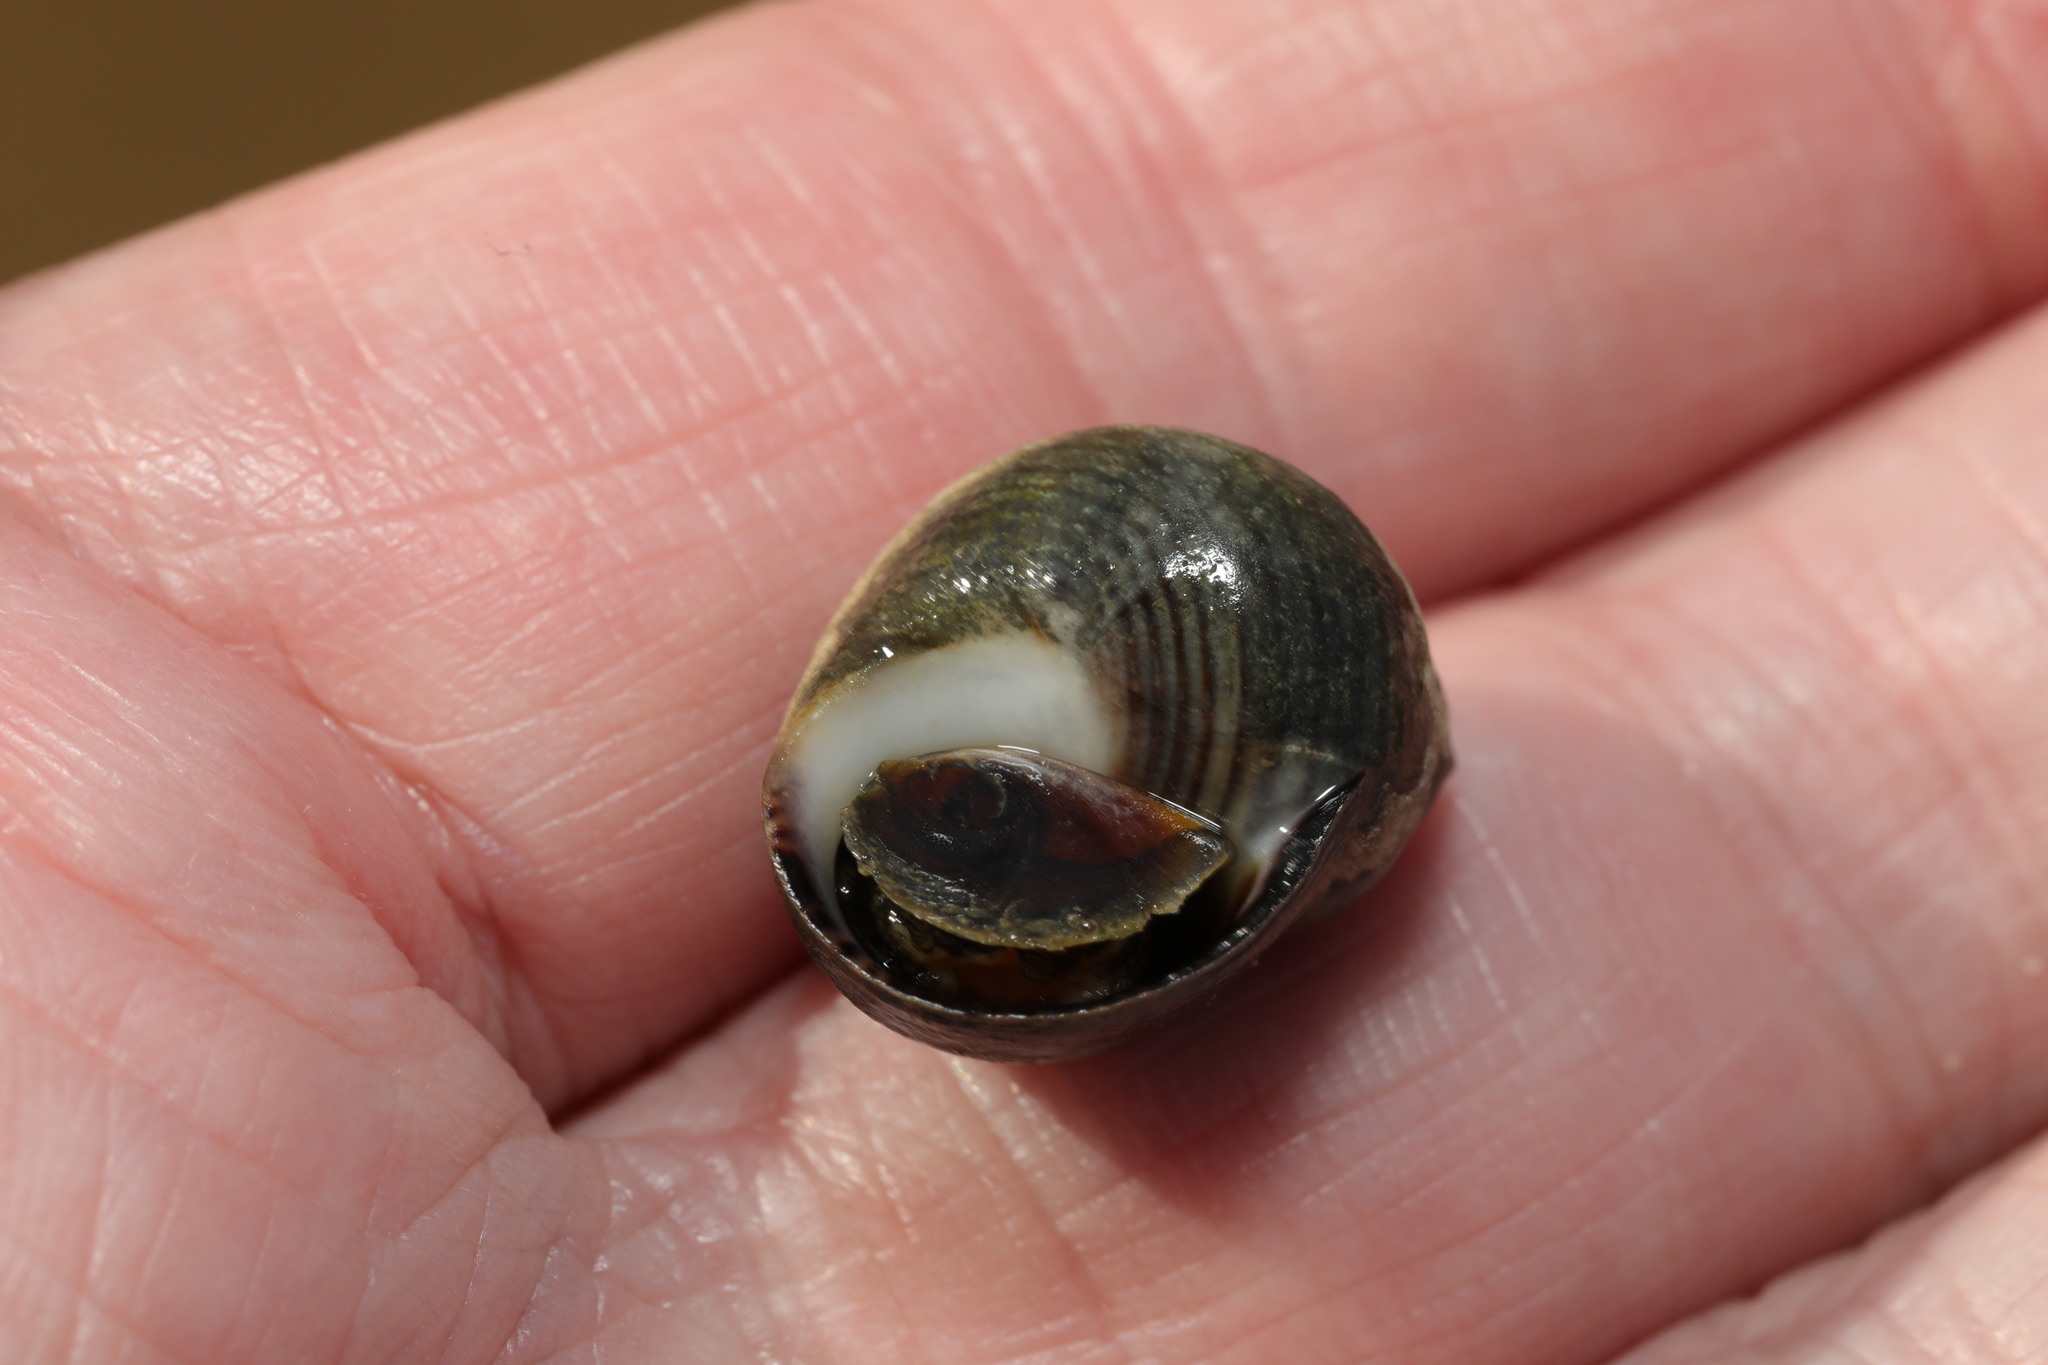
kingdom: Animalia
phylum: Mollusca
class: Gastropoda
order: Littorinimorpha
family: Littorinidae
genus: Littorina
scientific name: Littorina littorea
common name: Common periwinkle
